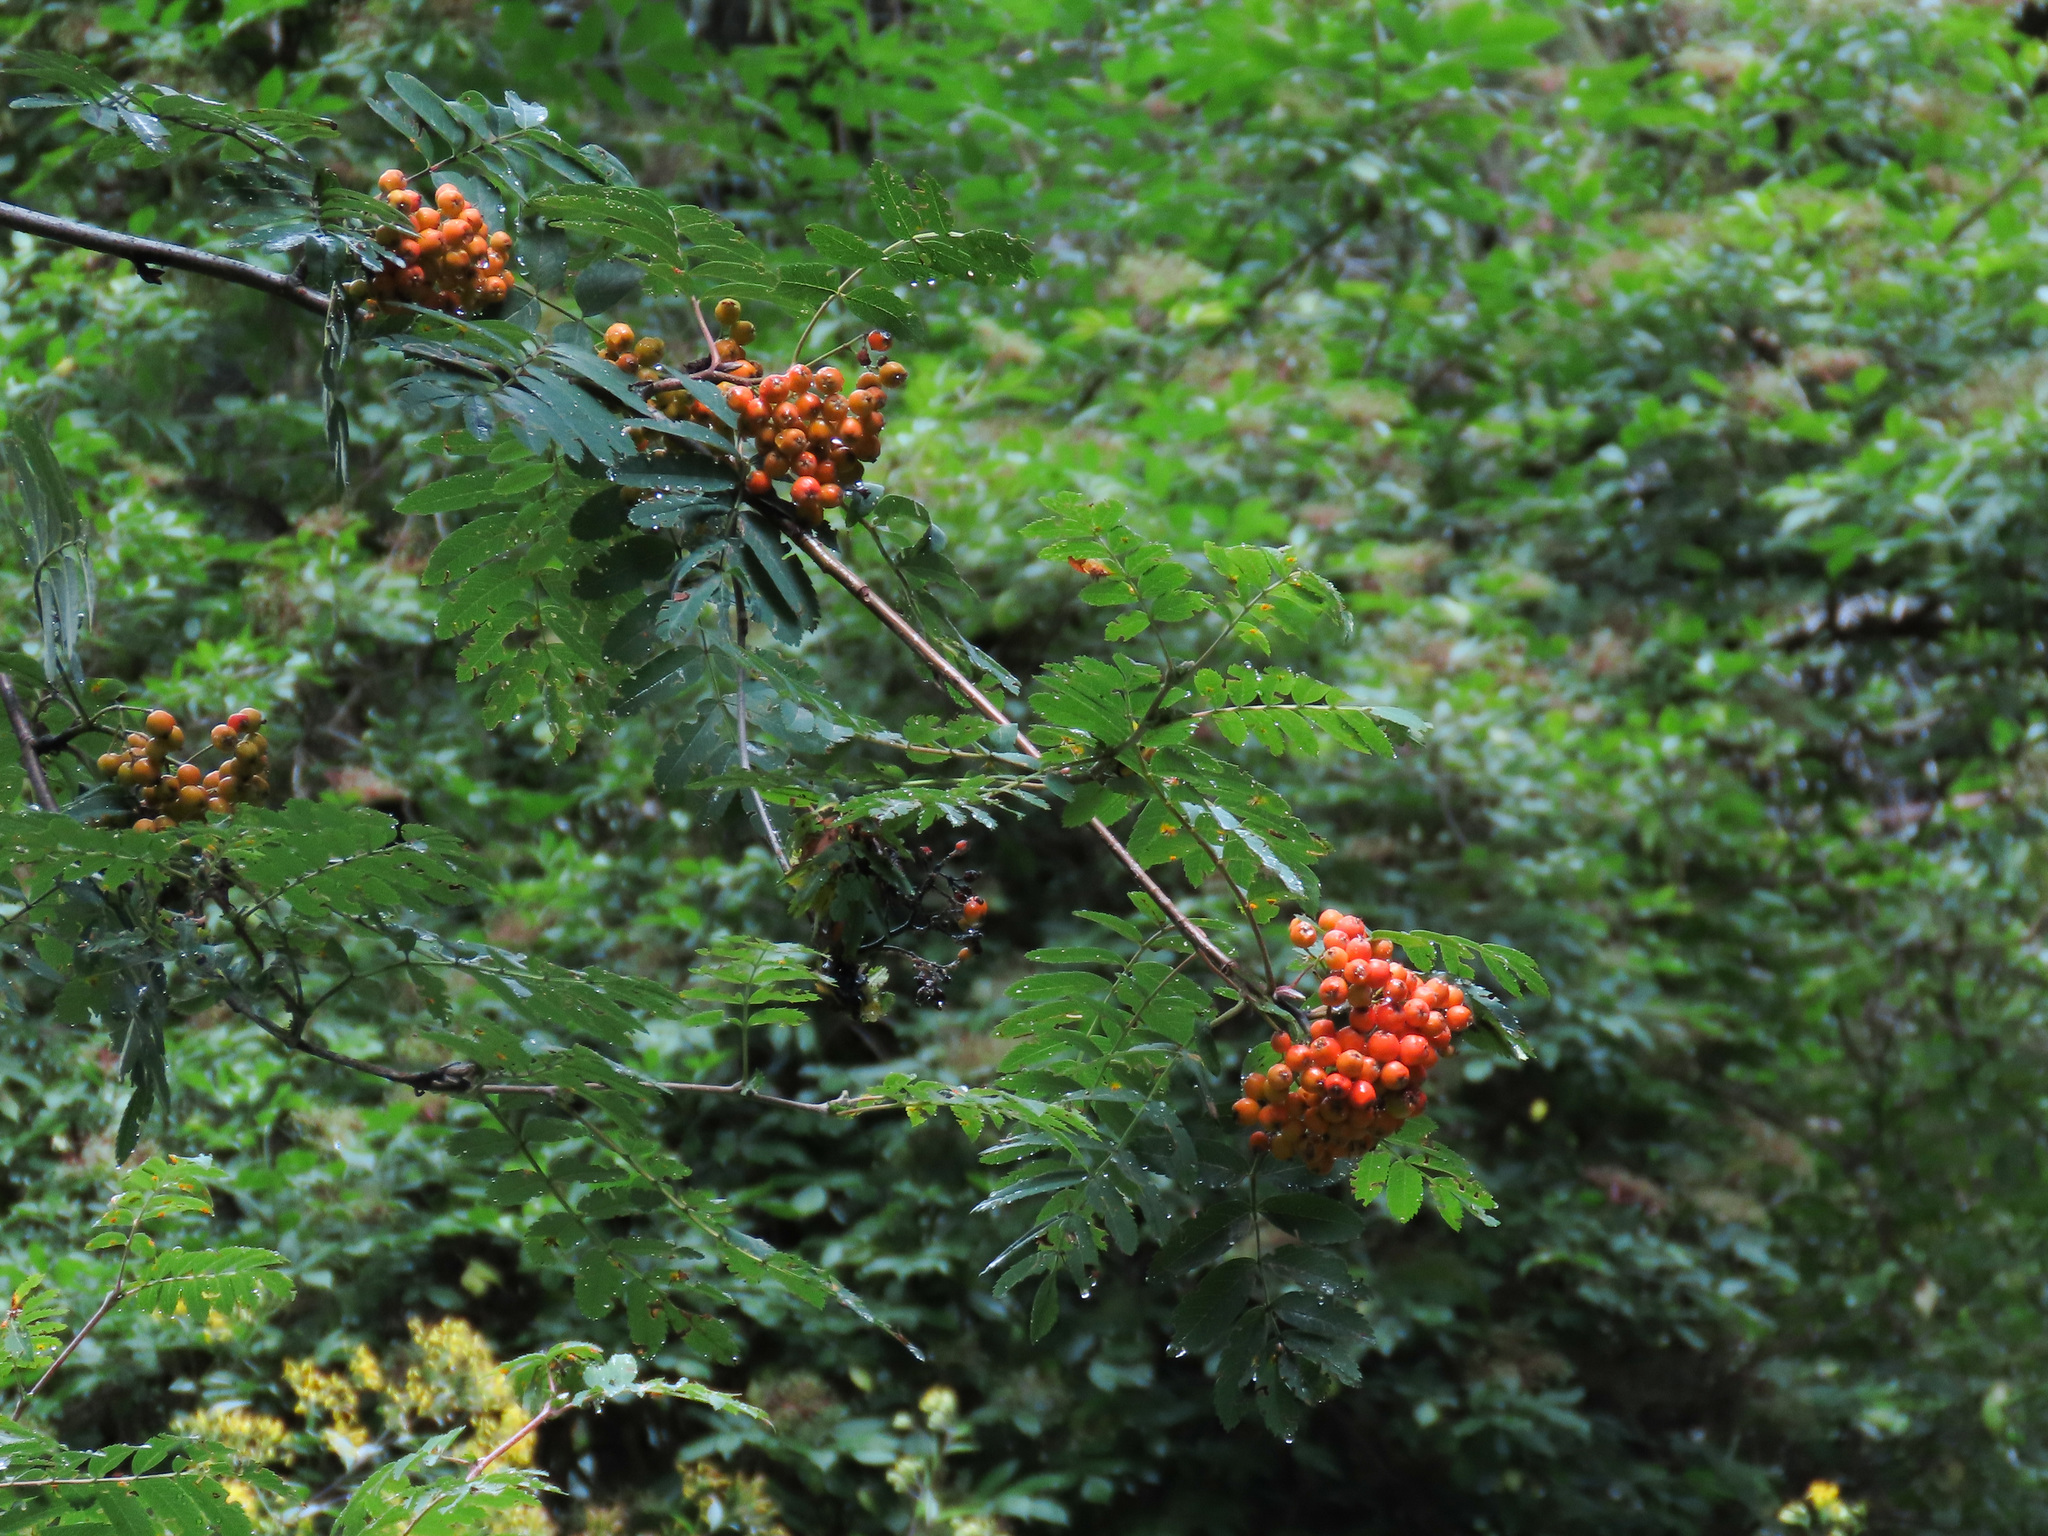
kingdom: Plantae
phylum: Tracheophyta
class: Magnoliopsida
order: Rosales
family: Rosaceae
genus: Sorbus
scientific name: Sorbus aucuparia
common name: Rowan
